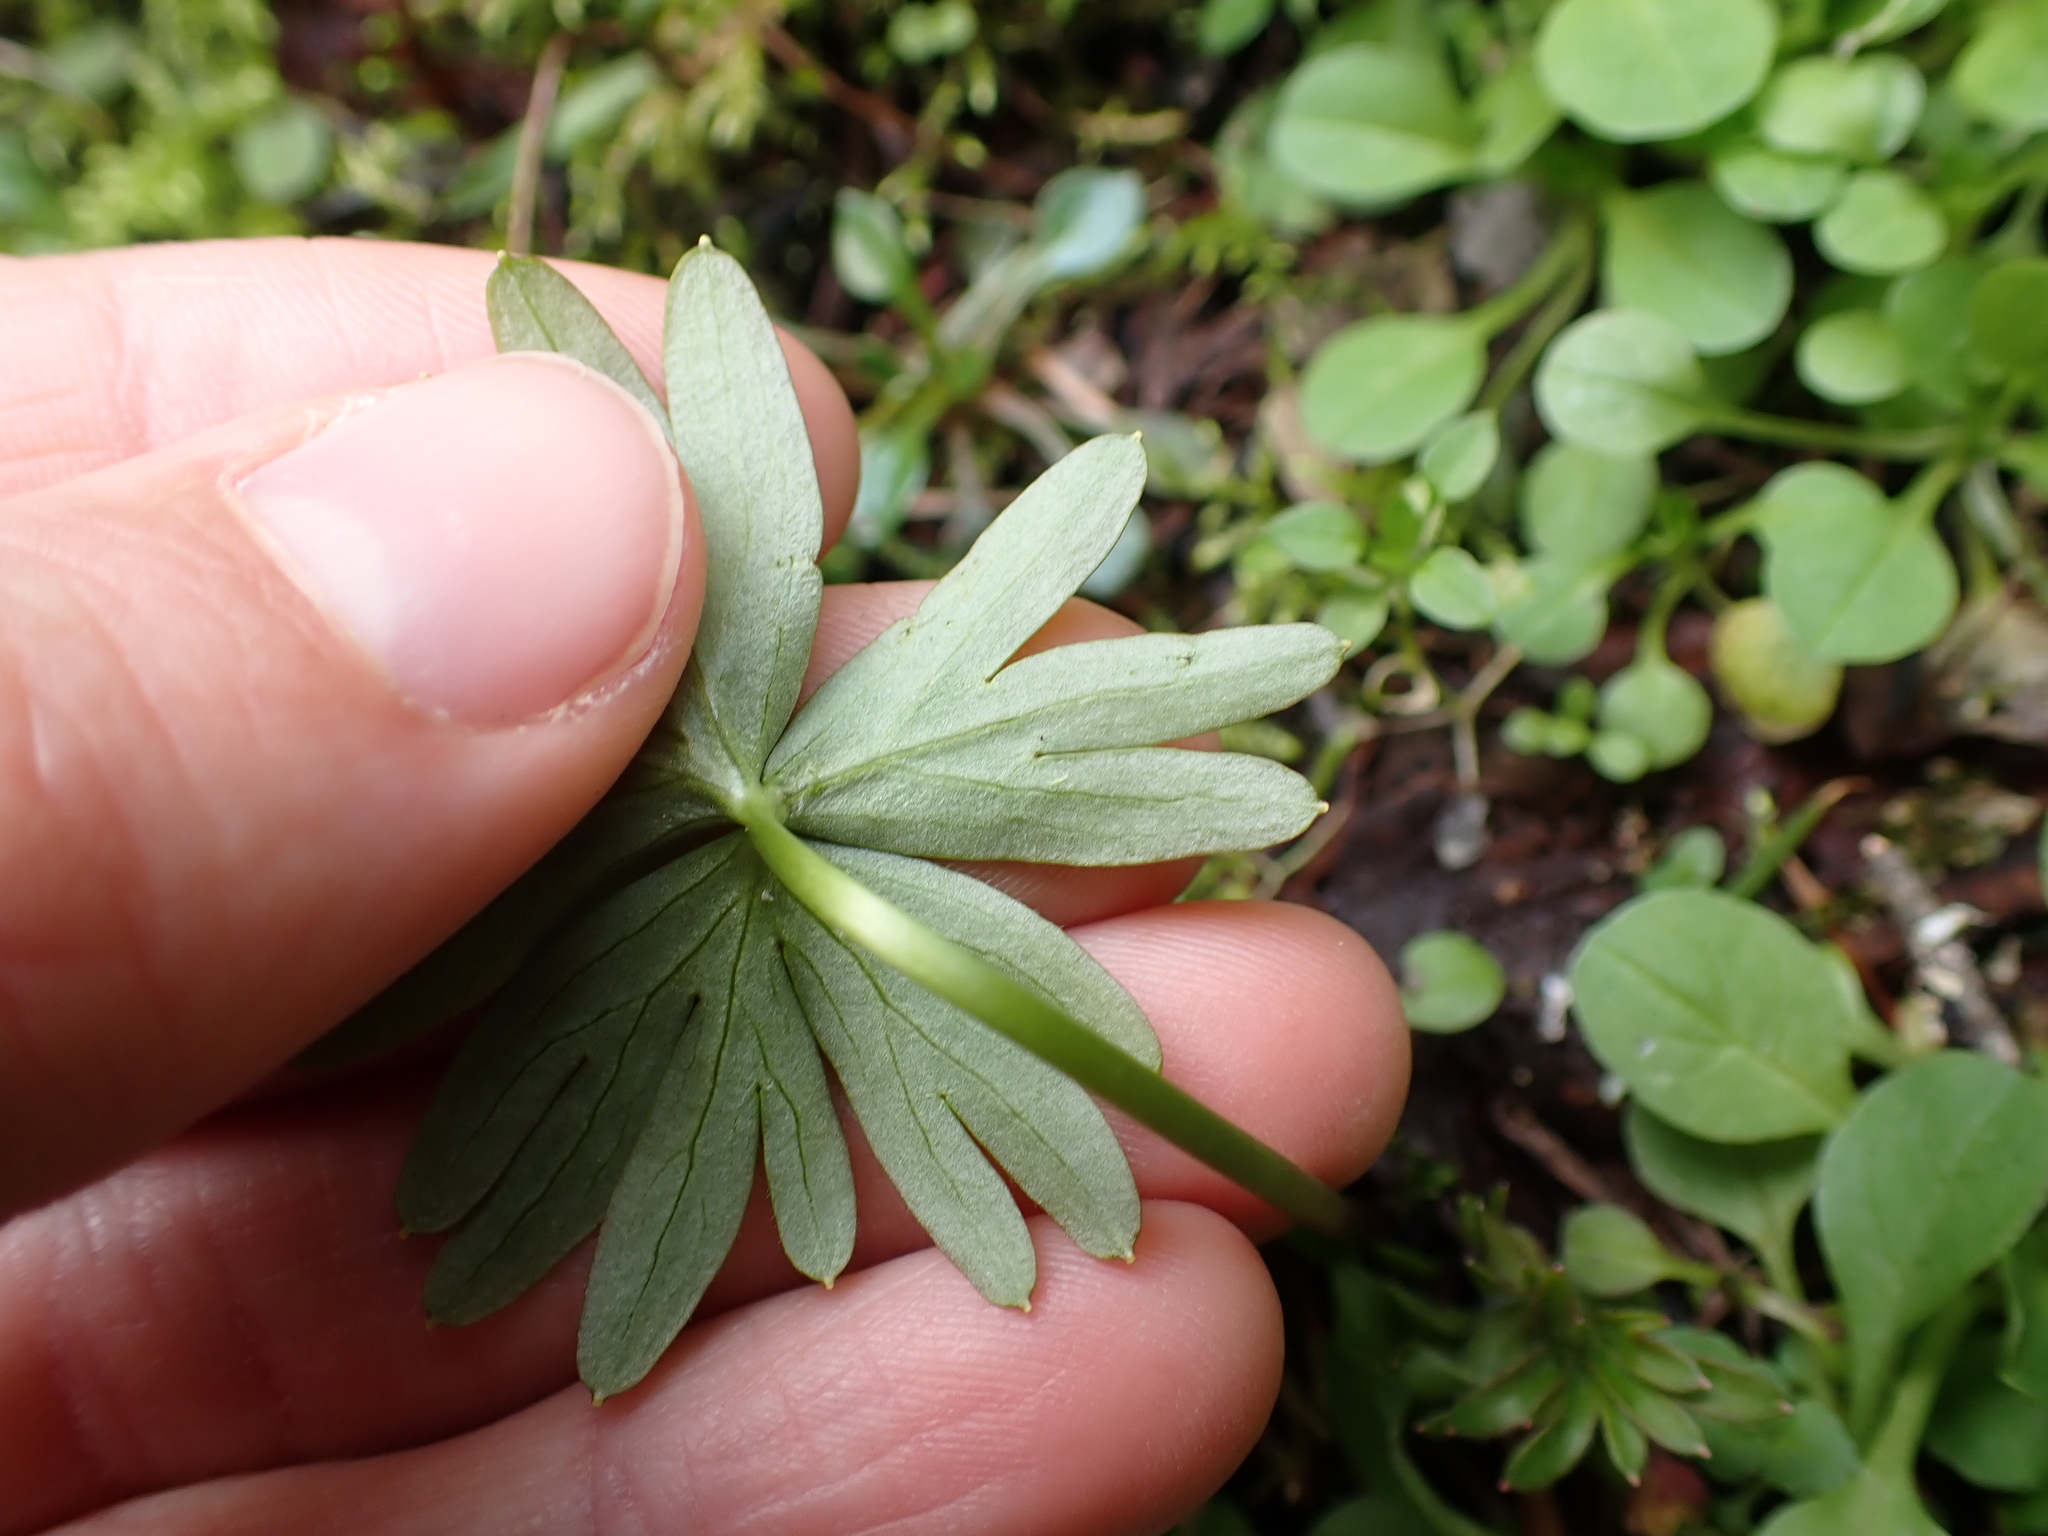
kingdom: Plantae
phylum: Tracheophyta
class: Magnoliopsida
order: Ranunculales
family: Ranunculaceae
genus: Delphinium
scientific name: Delphinium menziesii
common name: Menzies's larkspur
